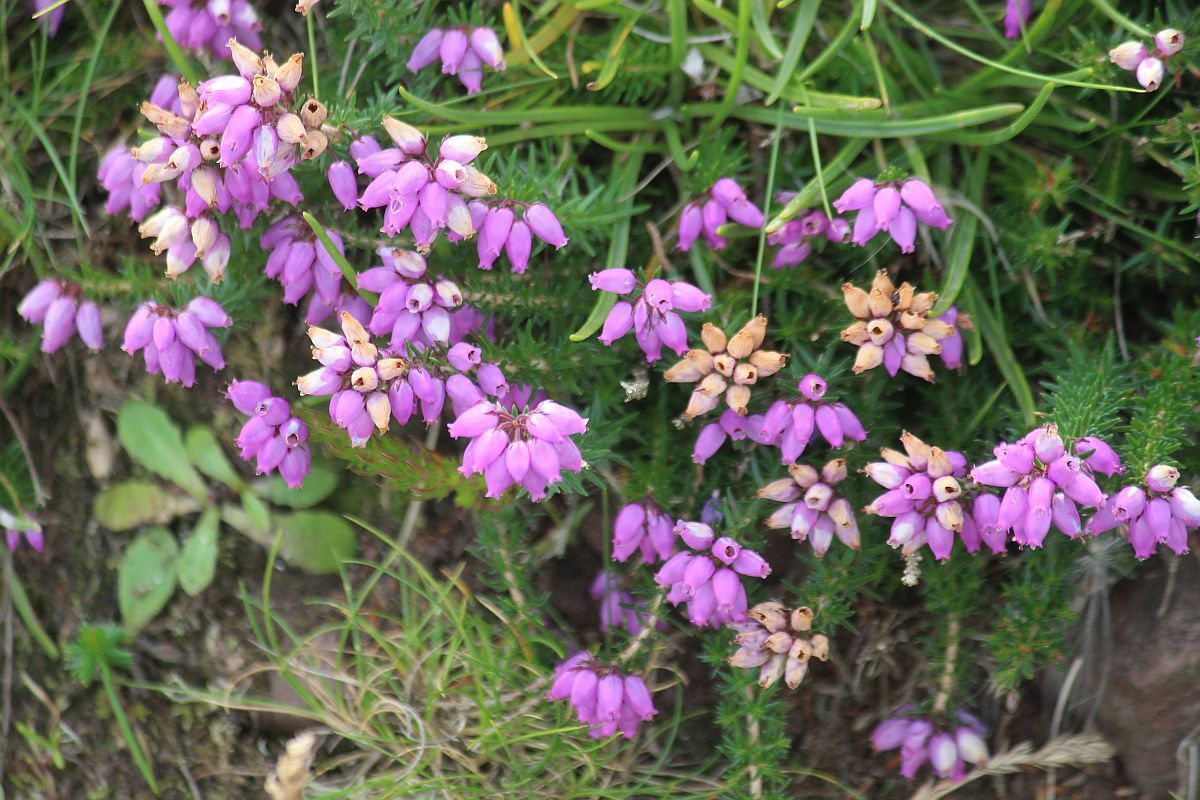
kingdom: Plantae
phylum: Tracheophyta
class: Magnoliopsida
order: Ericales
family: Ericaceae
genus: Erica
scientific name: Erica cinerea
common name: Bell heather
